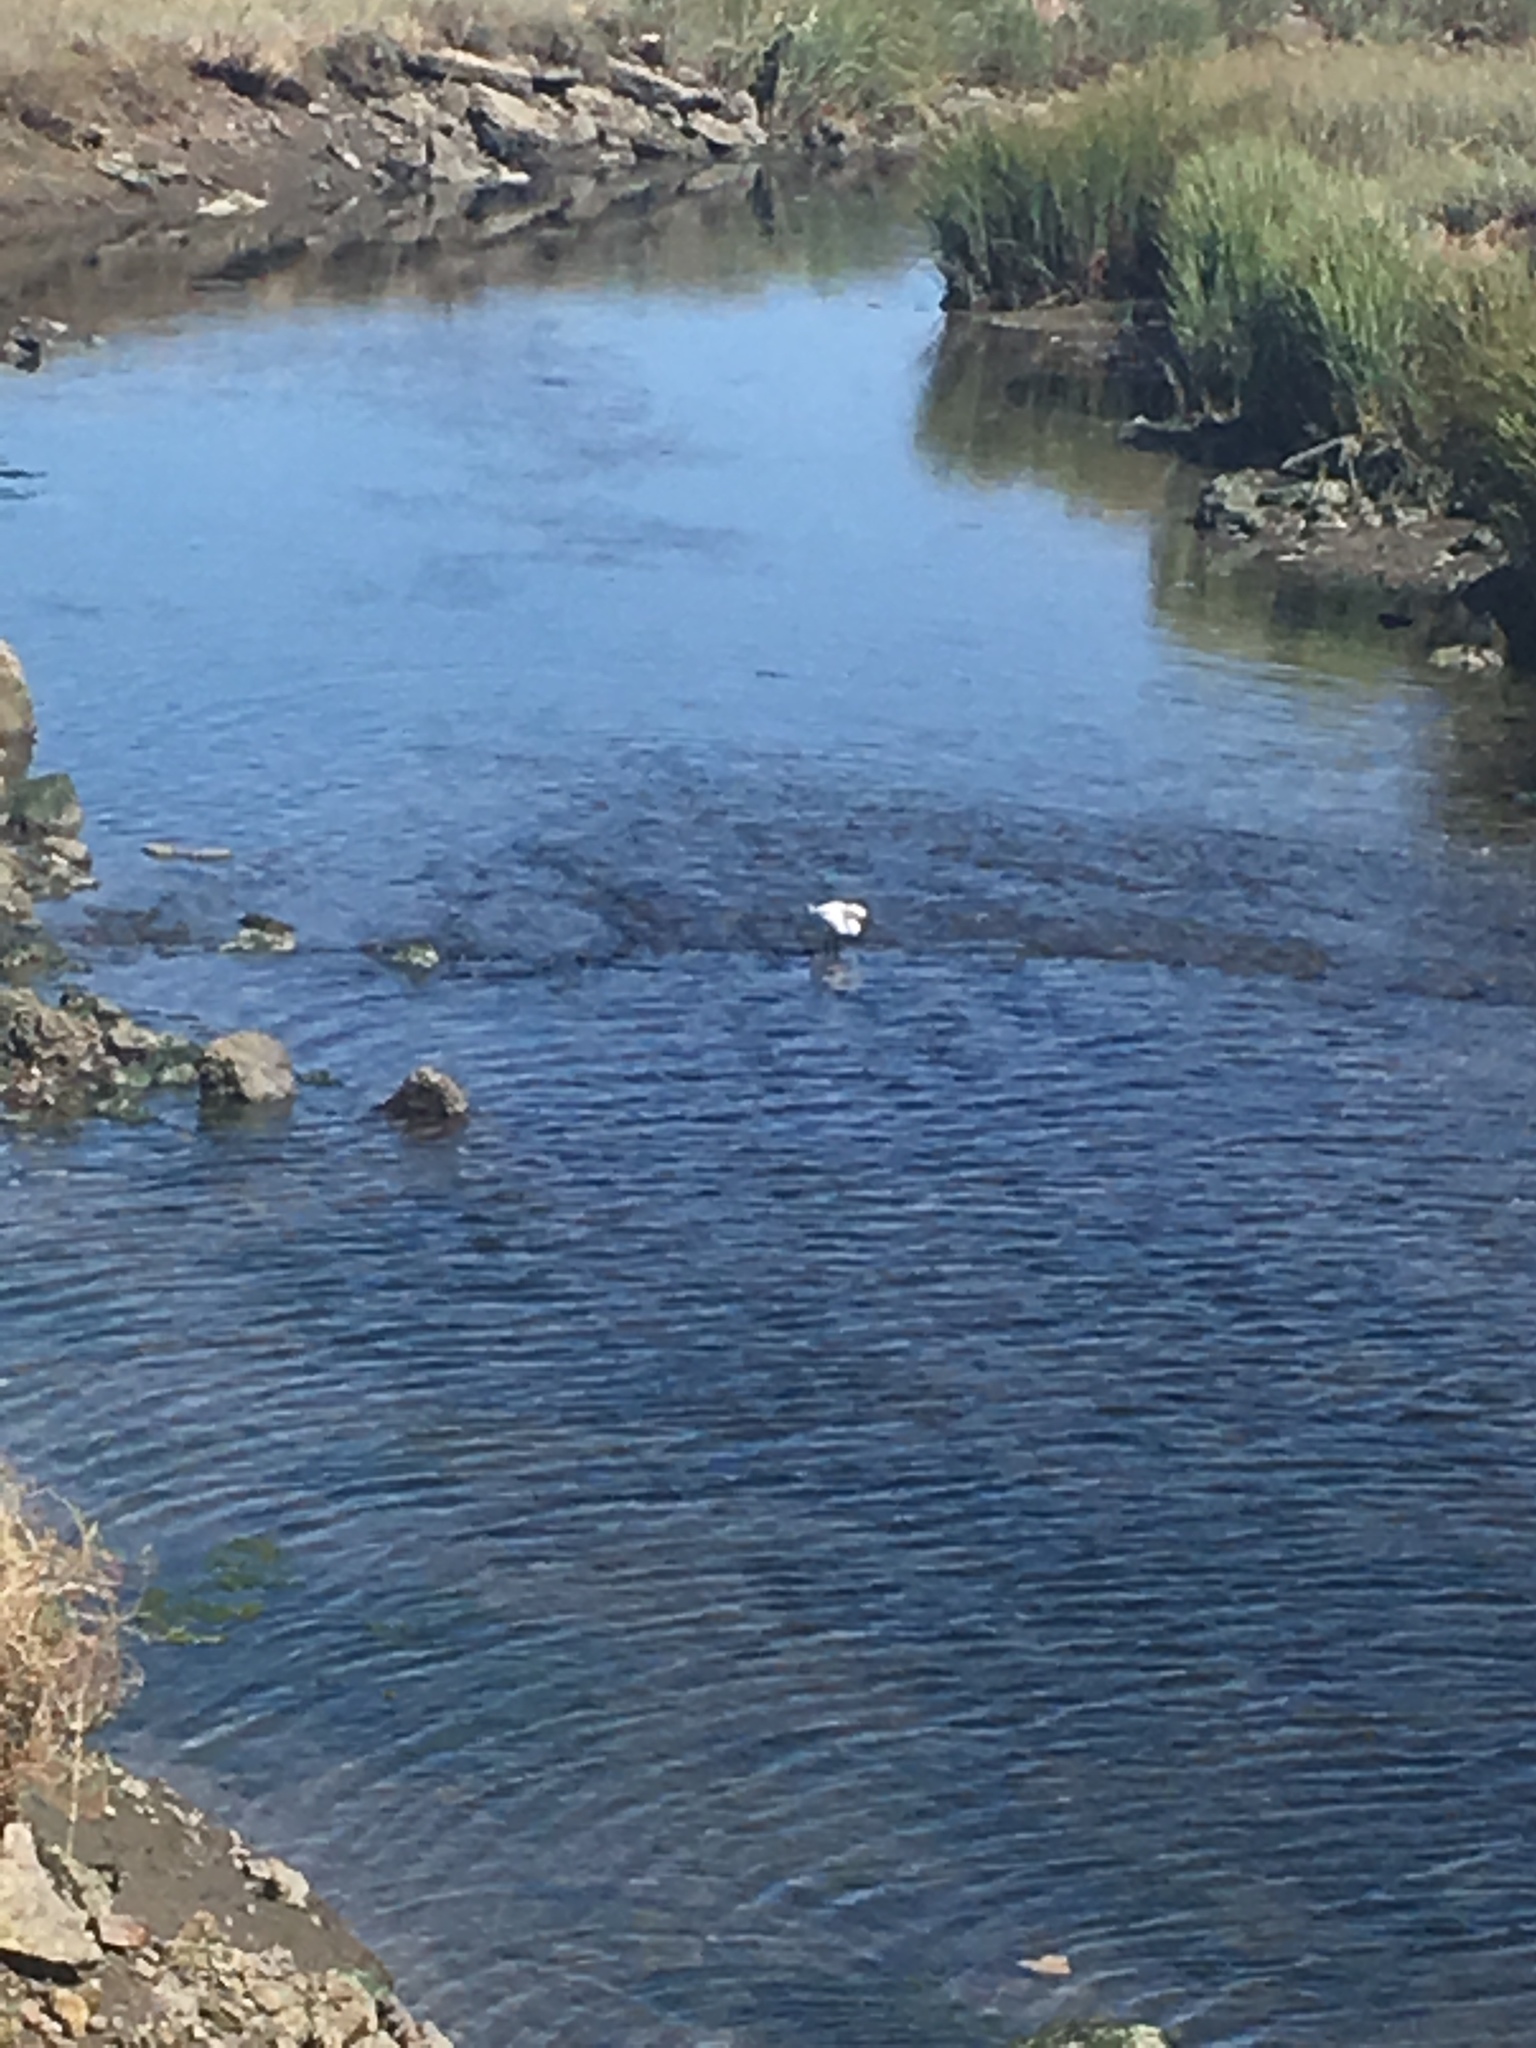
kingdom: Animalia
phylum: Chordata
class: Aves
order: Pelecaniformes
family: Ardeidae
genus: Egretta
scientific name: Egretta thula
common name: Snowy egret
